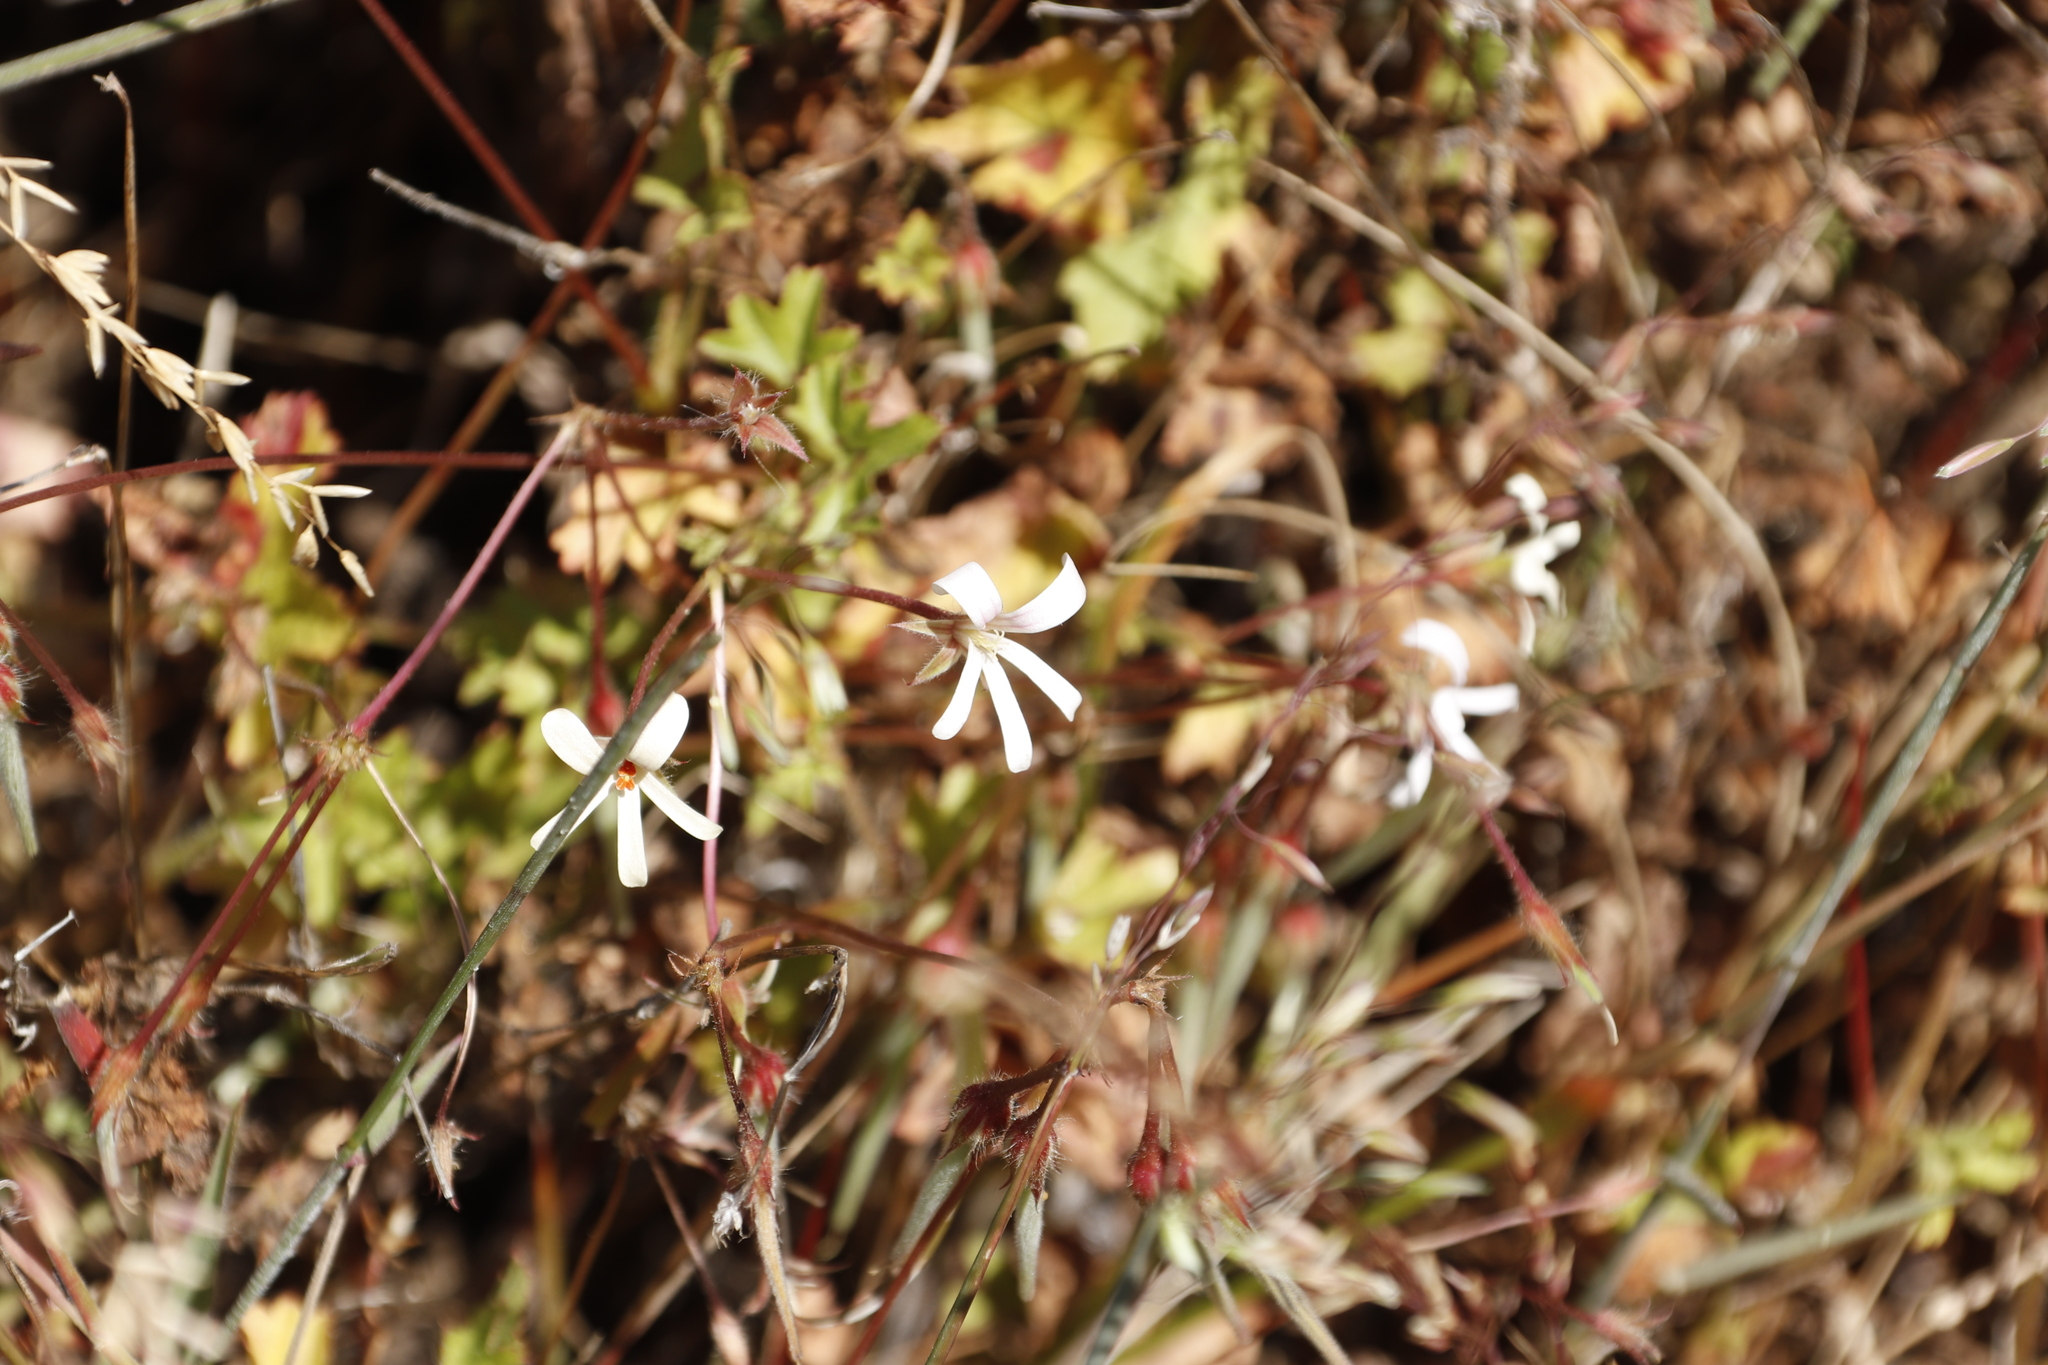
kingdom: Plantae
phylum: Tracheophyta
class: Magnoliopsida
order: Geraniales
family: Geraniaceae
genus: Pelargonium
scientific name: Pelargonium elongatum
